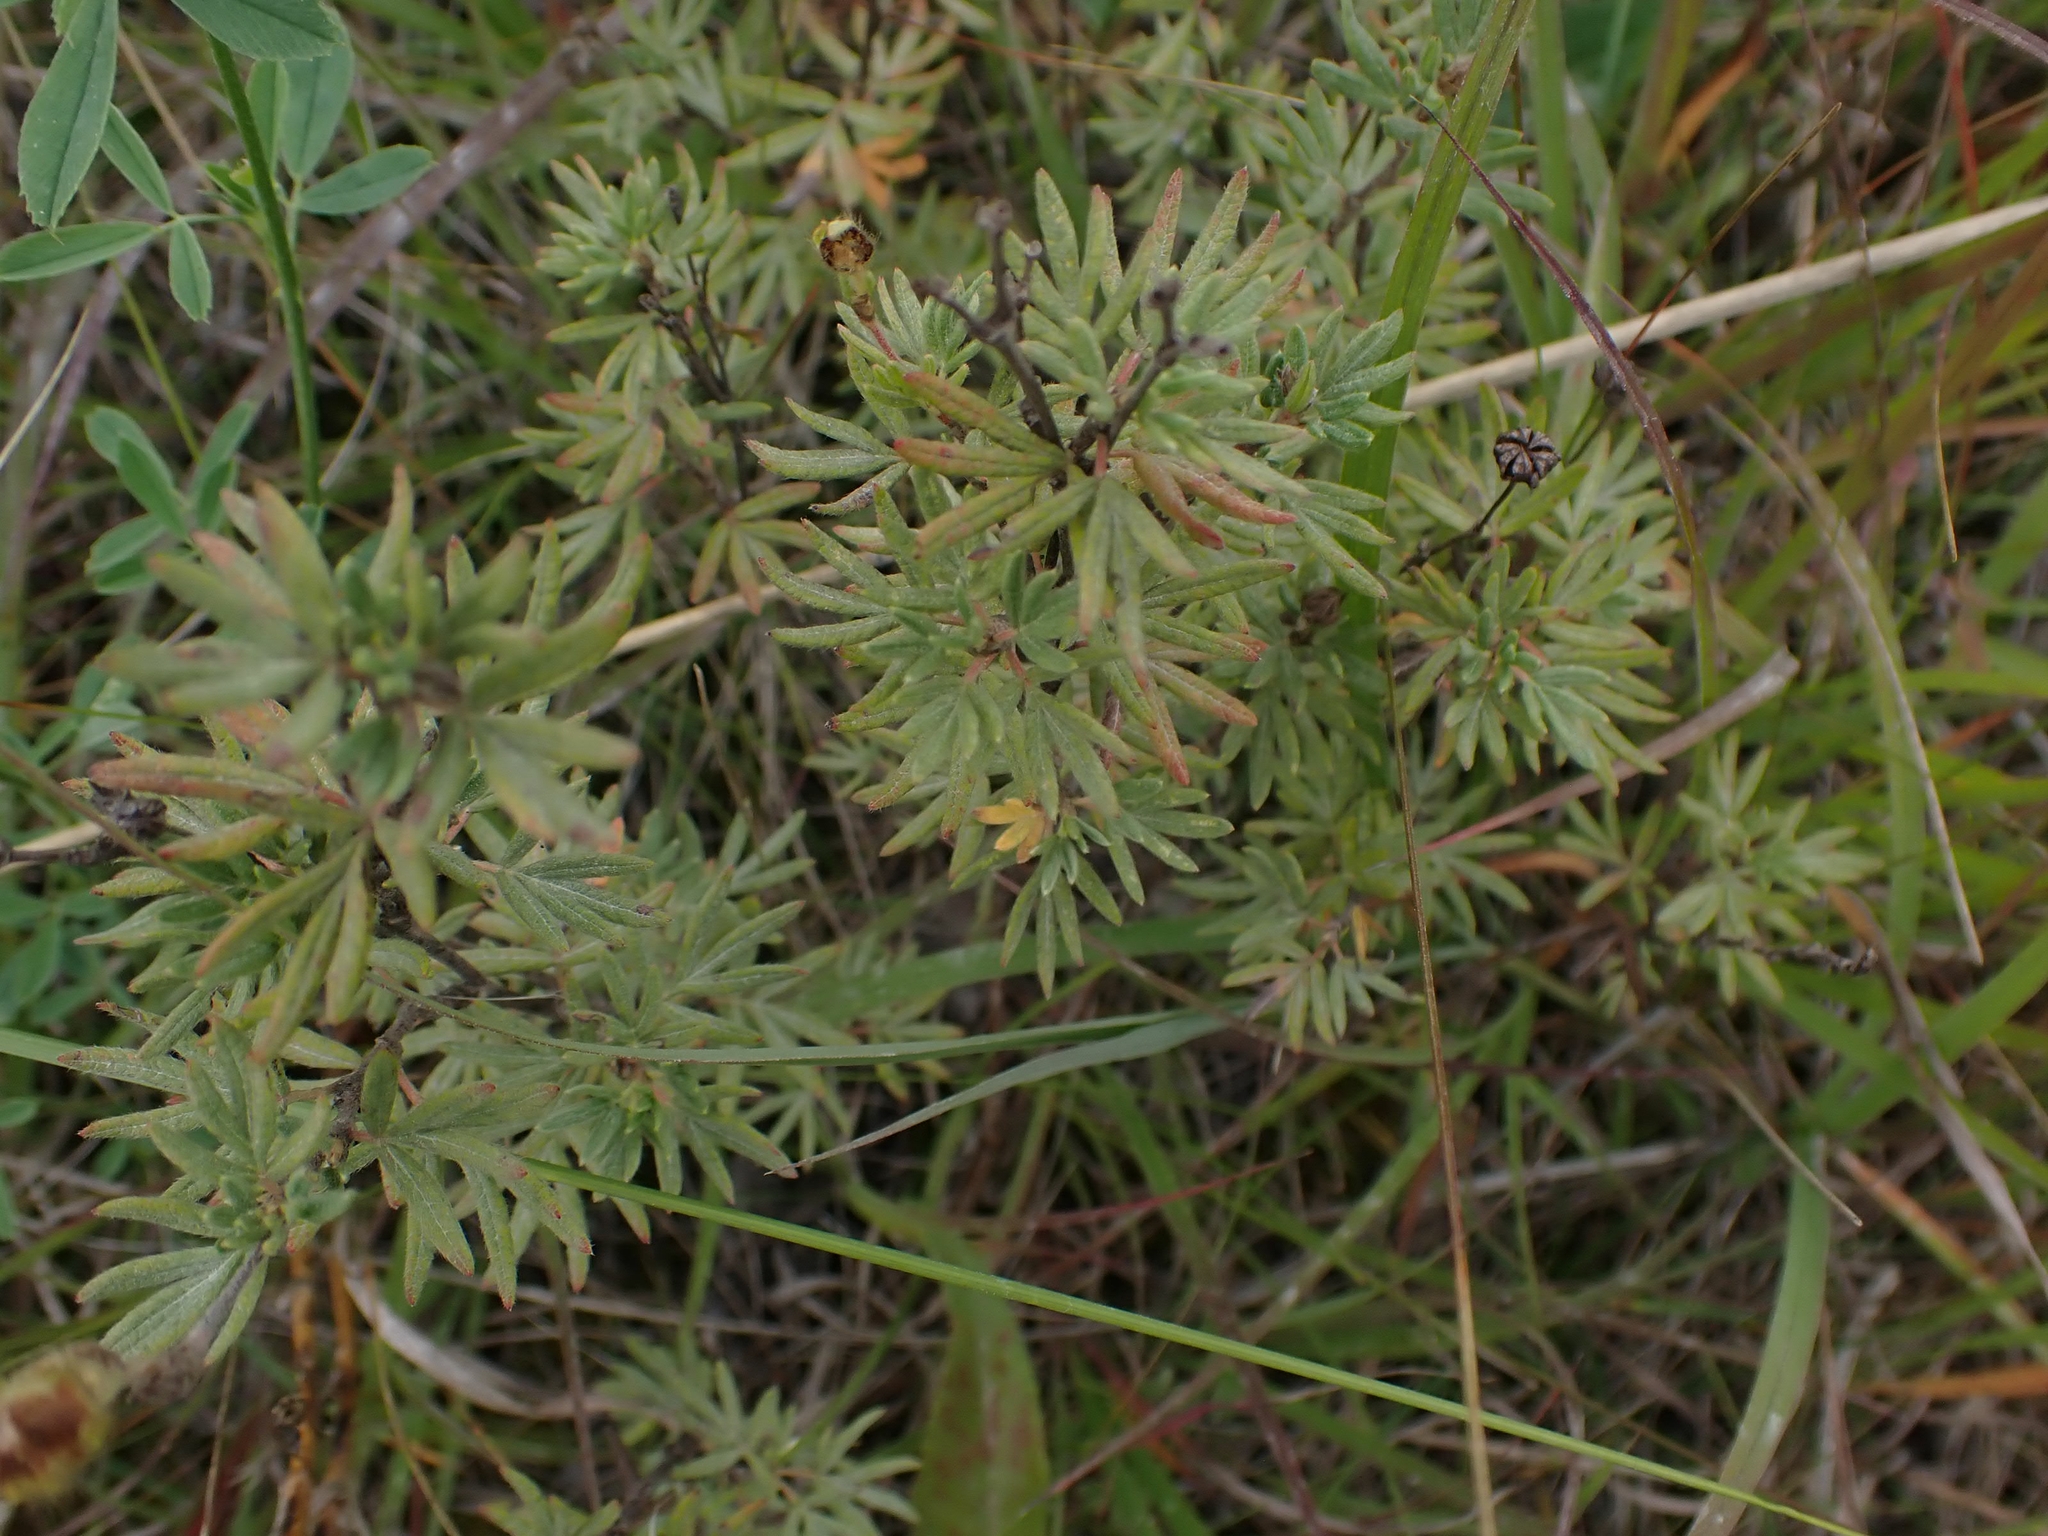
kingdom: Plantae
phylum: Tracheophyta
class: Magnoliopsida
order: Rosales
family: Rosaceae
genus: Dasiphora
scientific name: Dasiphora fruticosa
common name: Shrubby cinquefoil
